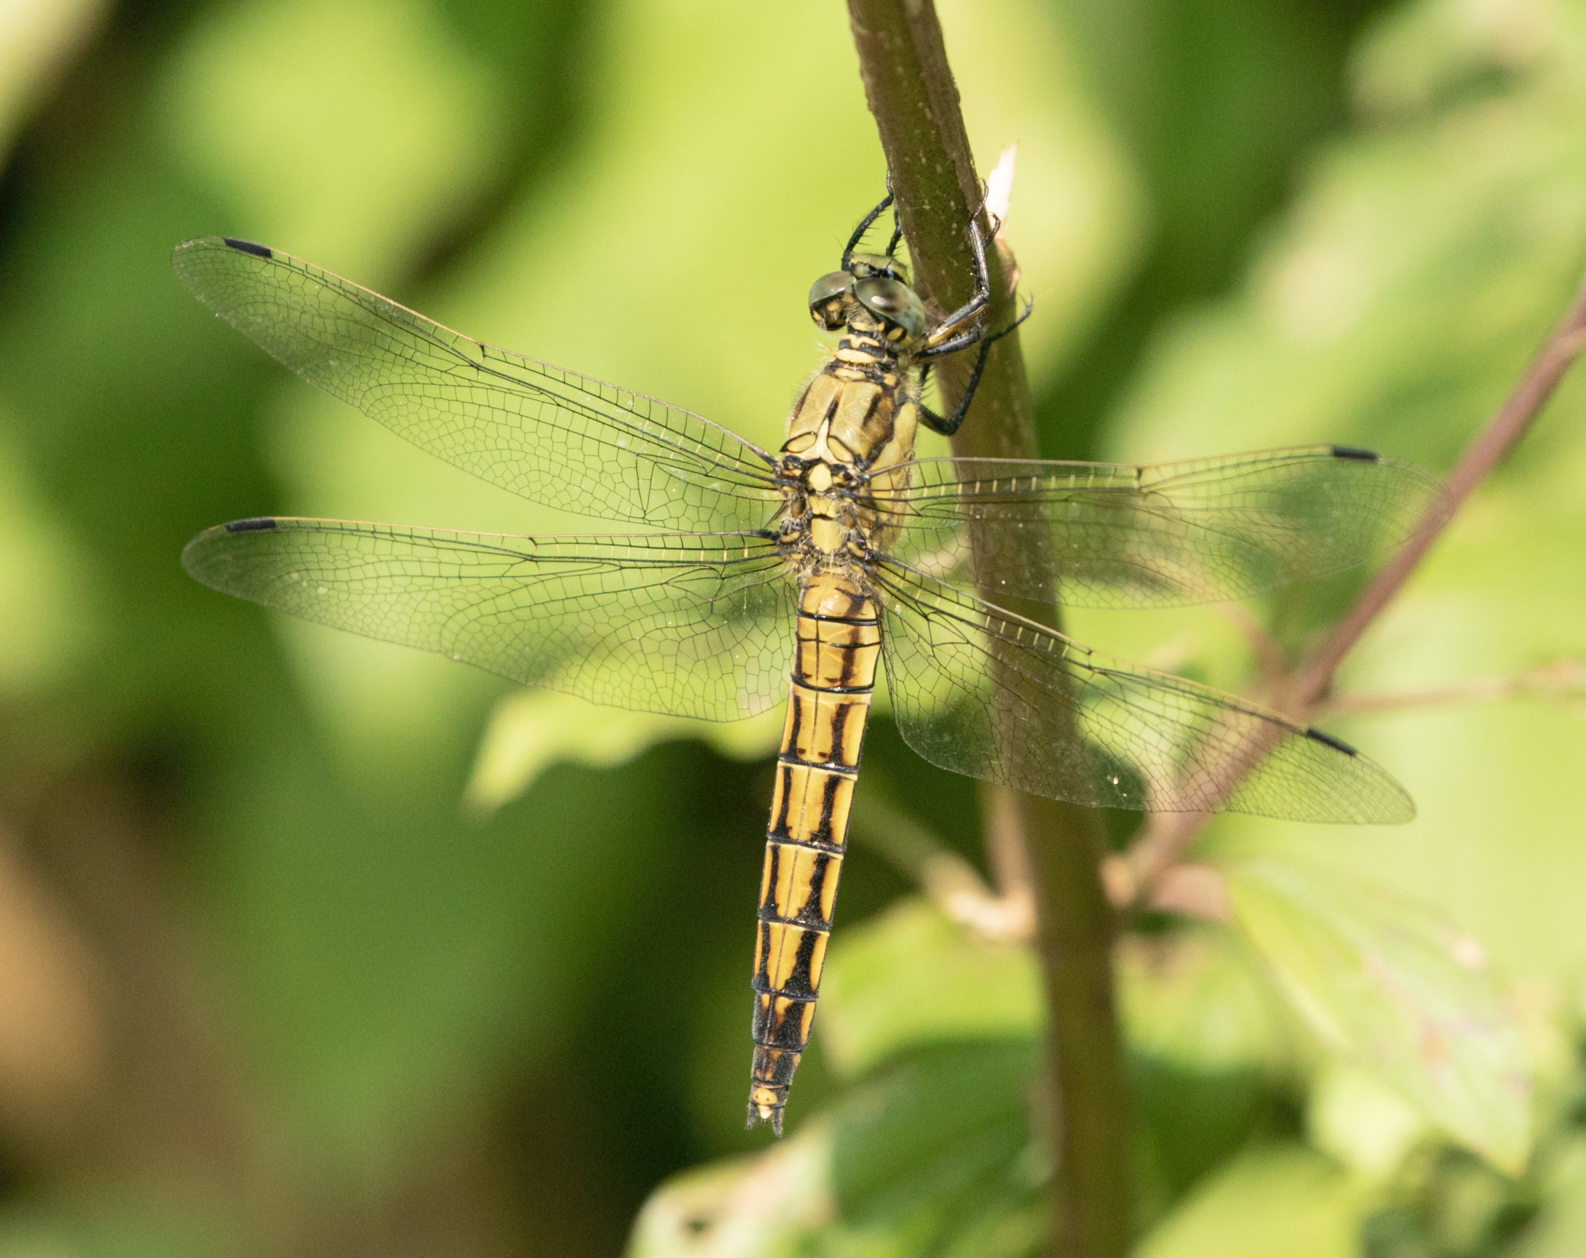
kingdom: Animalia
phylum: Arthropoda
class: Insecta
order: Odonata
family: Libellulidae
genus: Orthetrum
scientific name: Orthetrum cancellatum
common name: Black-tailed skimmer
